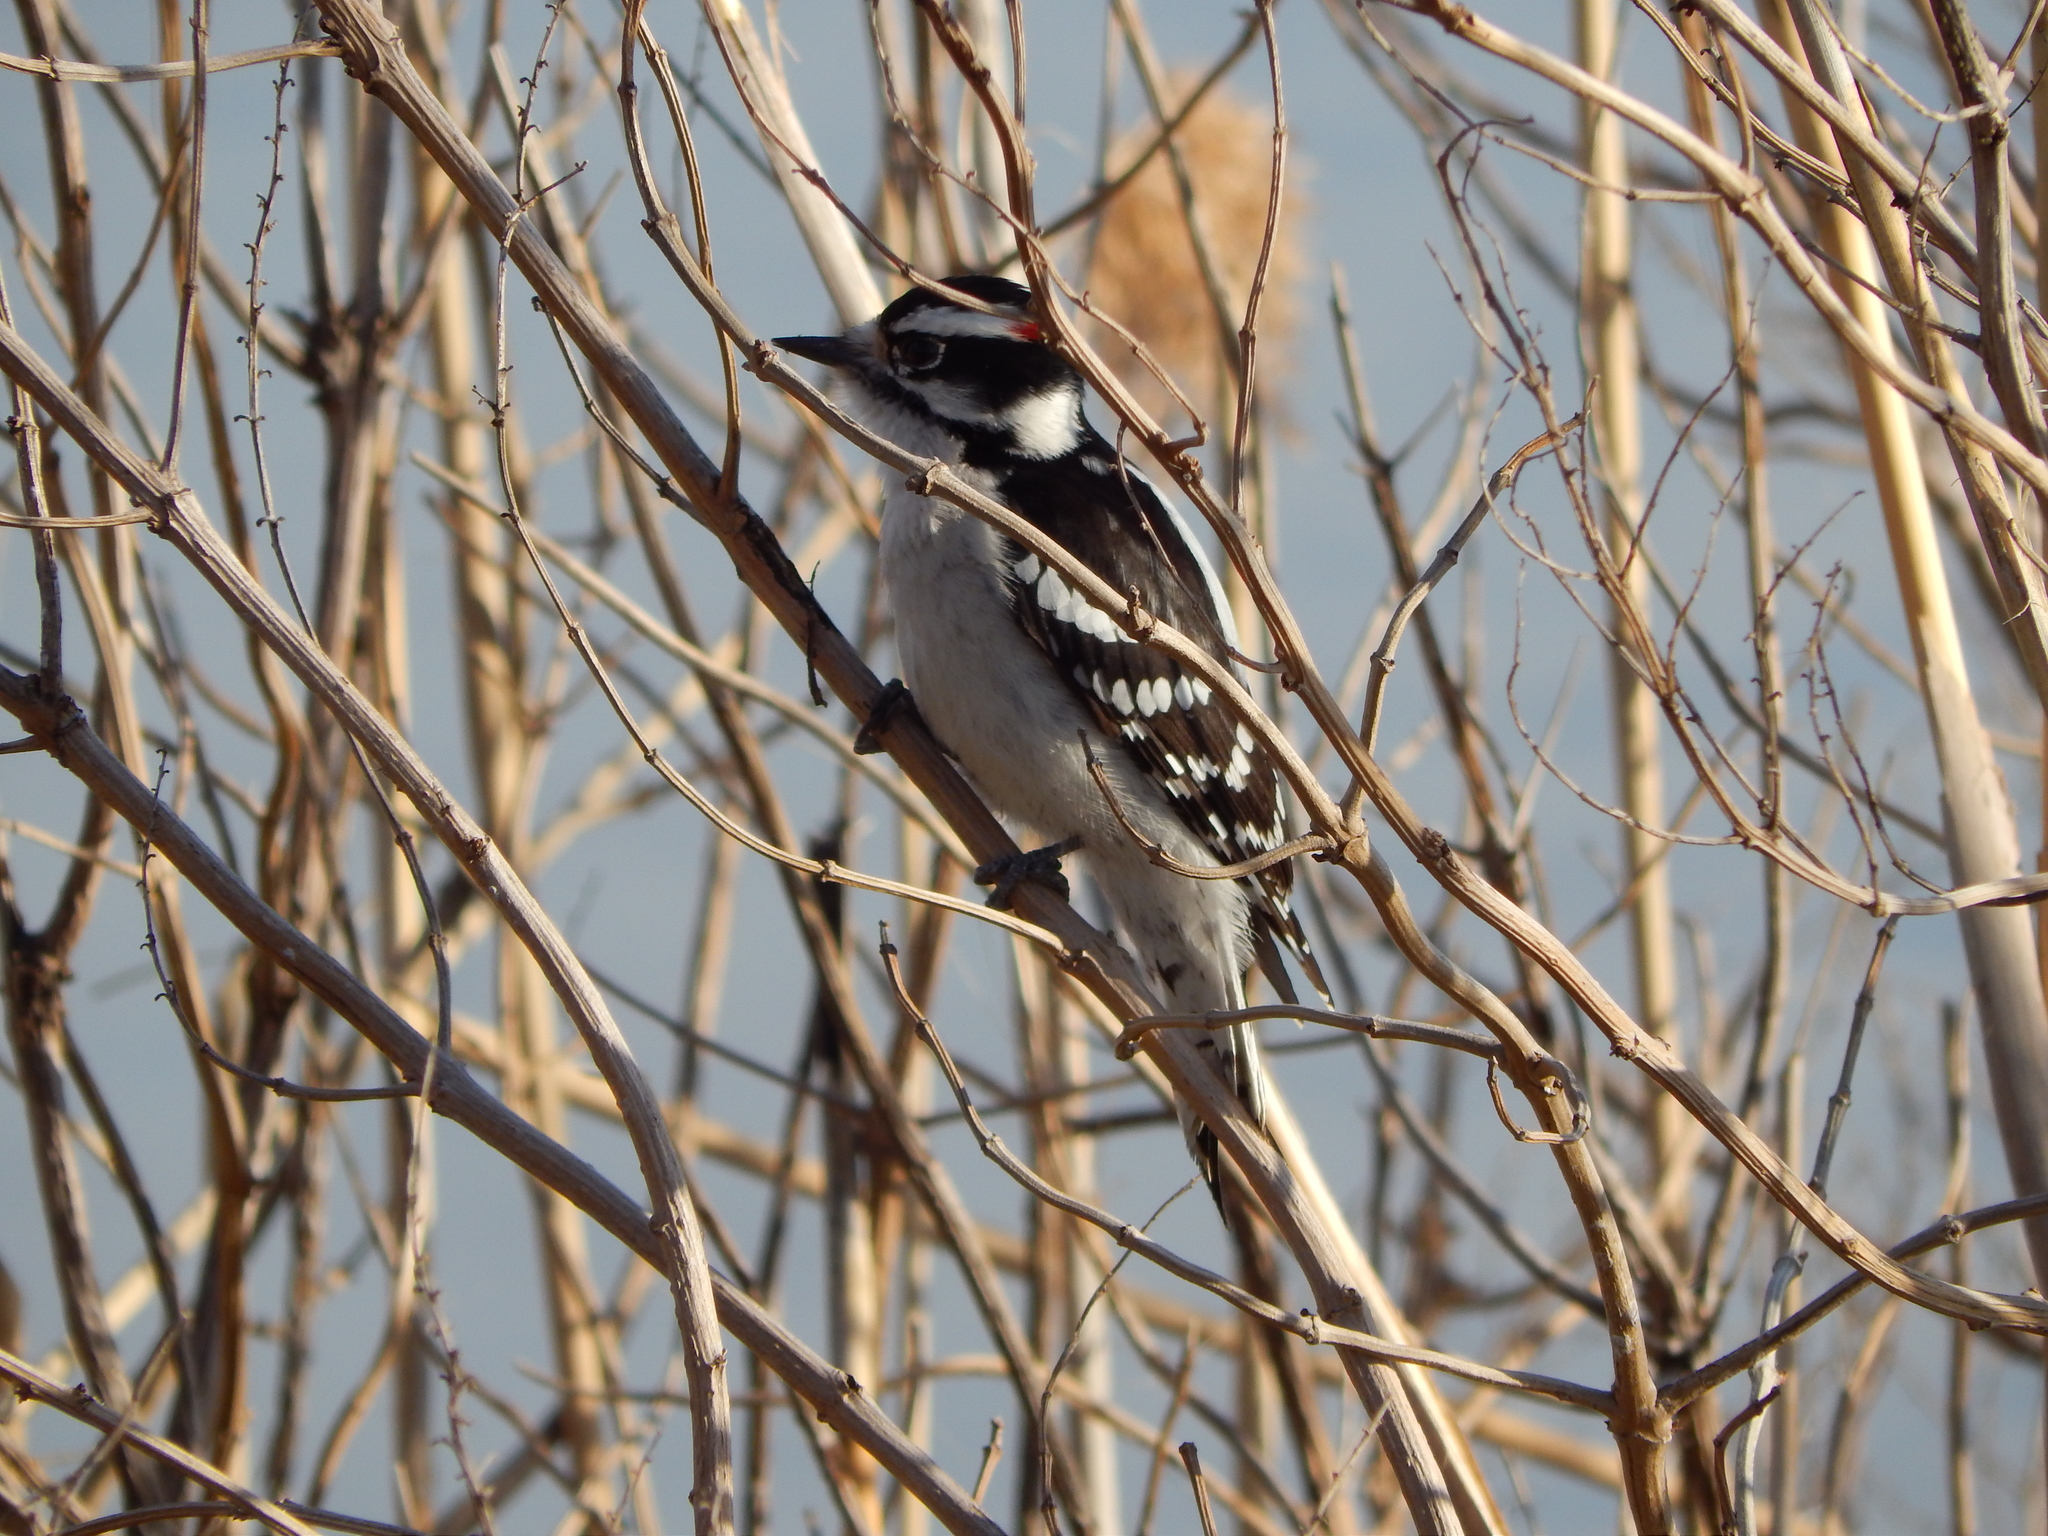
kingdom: Animalia
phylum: Chordata
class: Aves
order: Piciformes
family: Picidae
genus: Dryobates
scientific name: Dryobates pubescens
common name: Downy woodpecker
